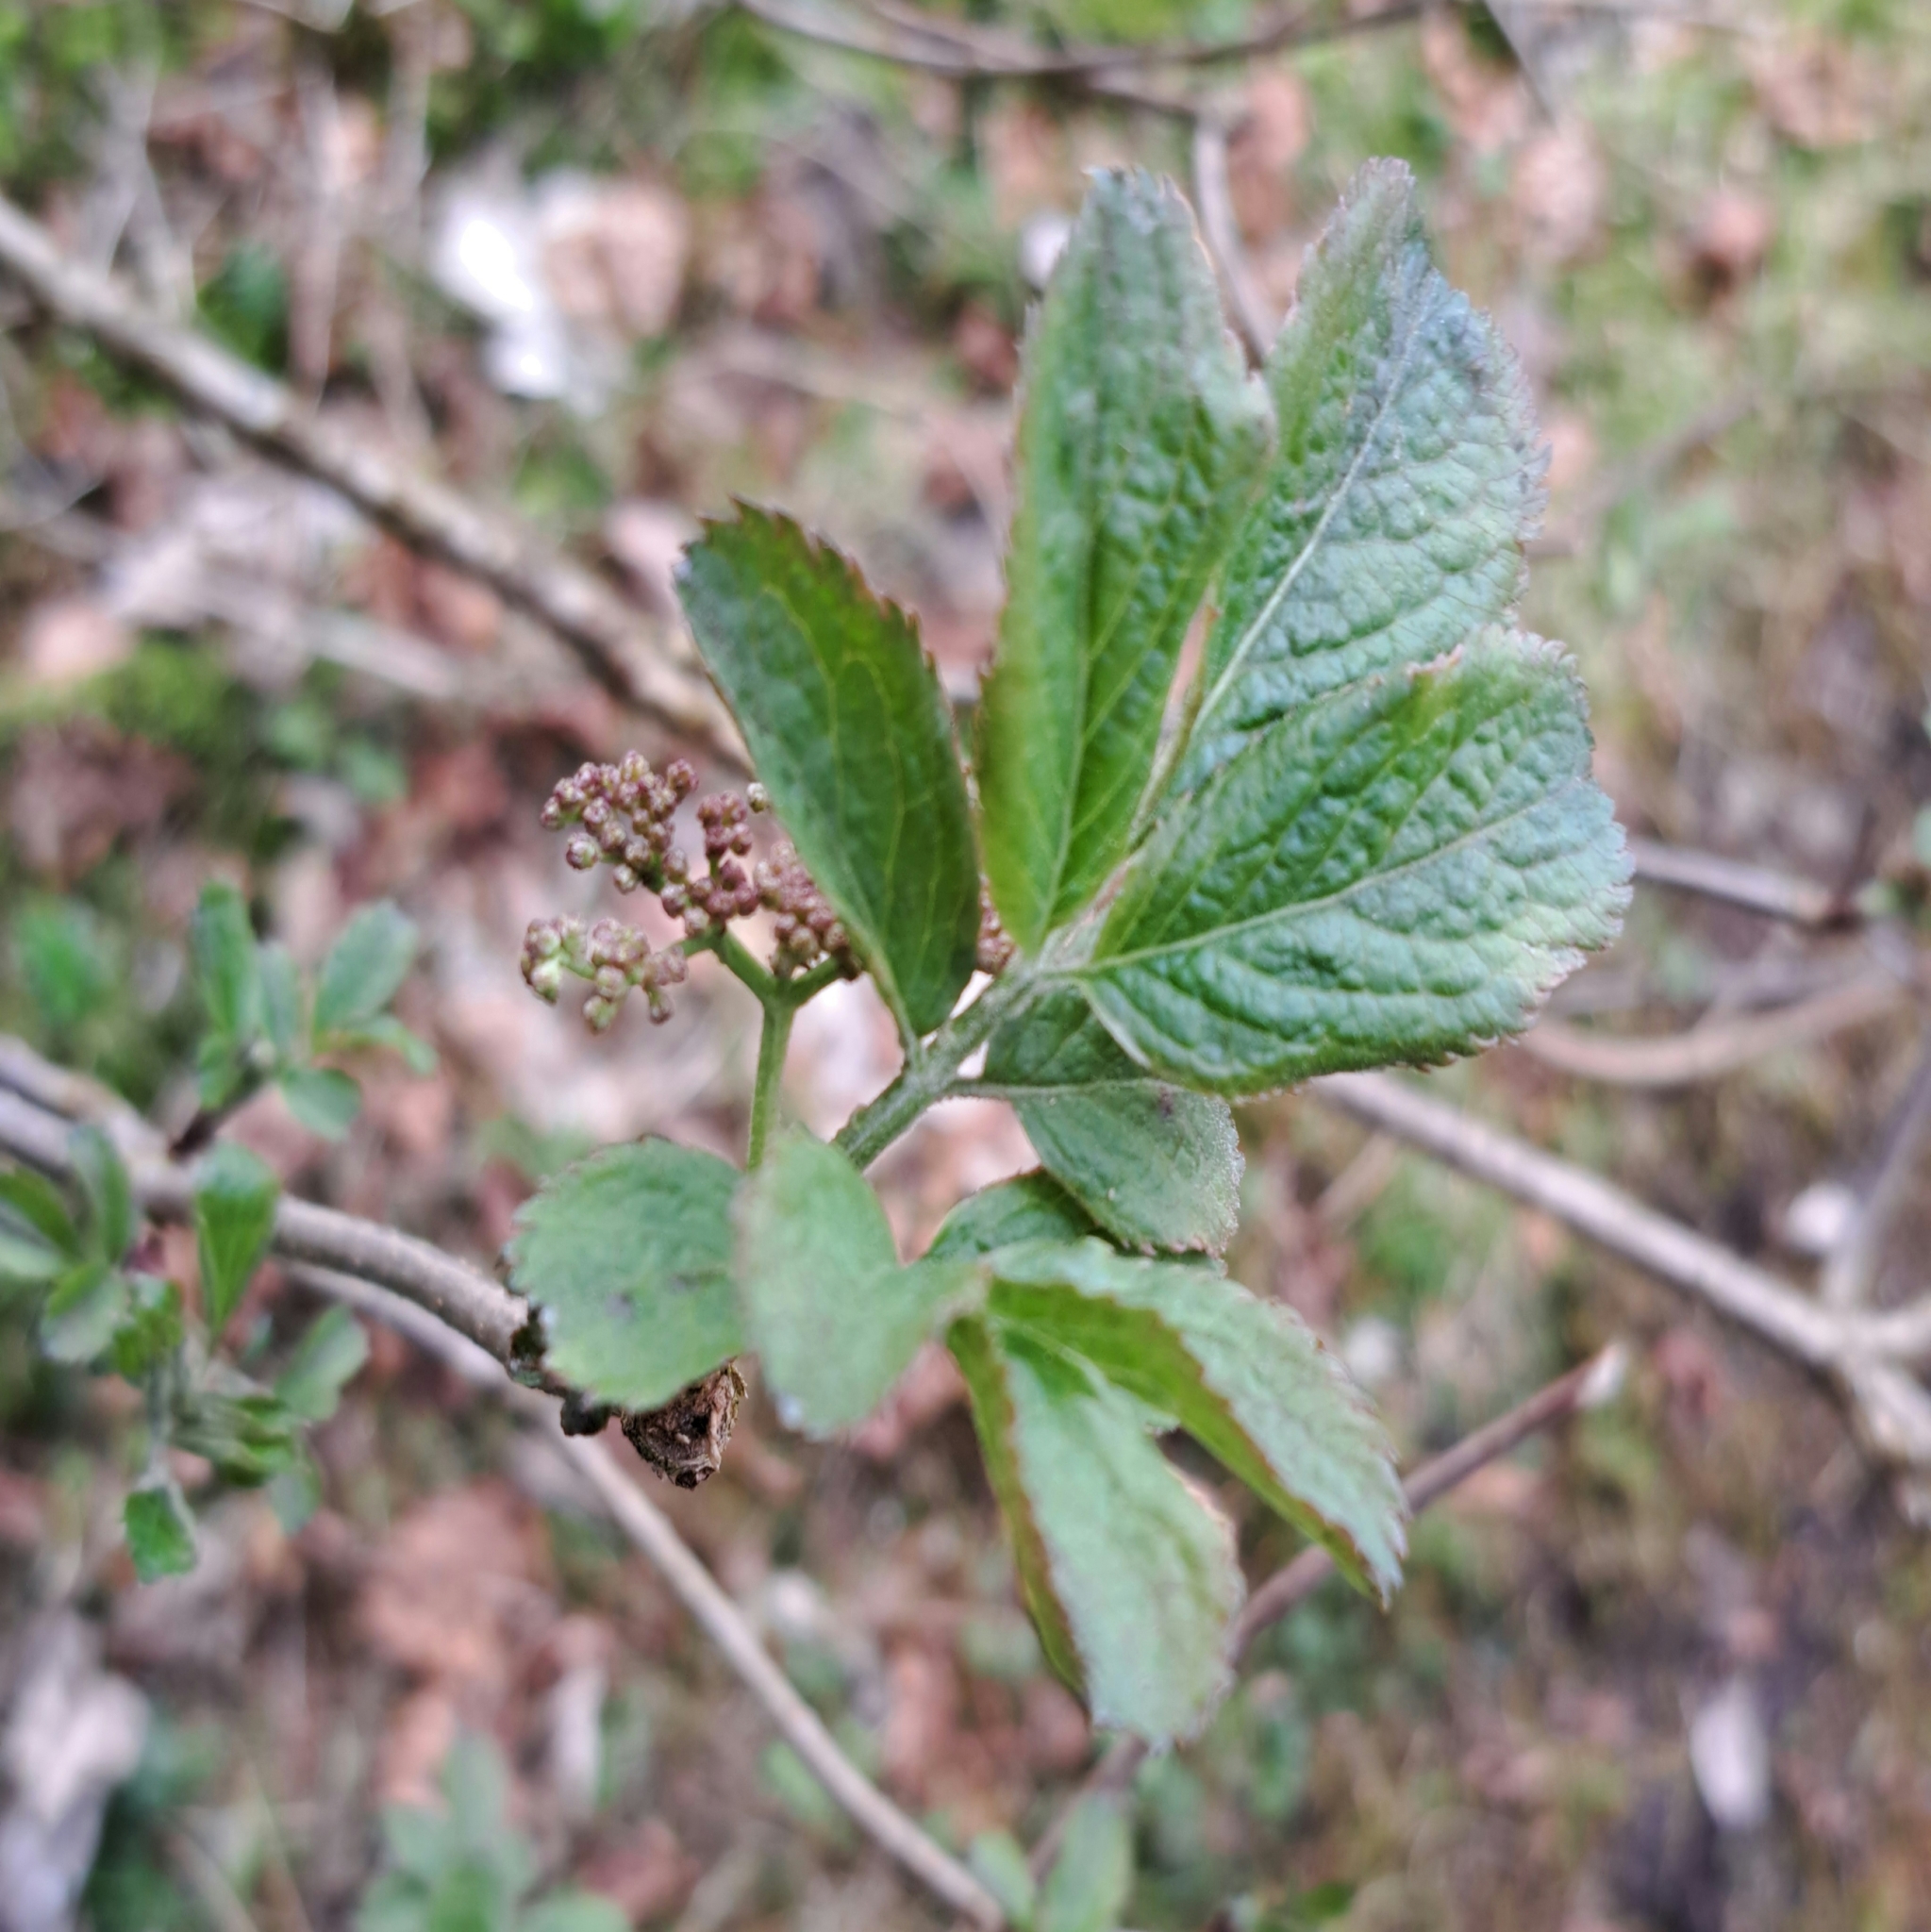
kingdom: Plantae
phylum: Tracheophyta
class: Magnoliopsida
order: Dipsacales
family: Viburnaceae
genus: Sambucus
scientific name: Sambucus nigra
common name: Elder
